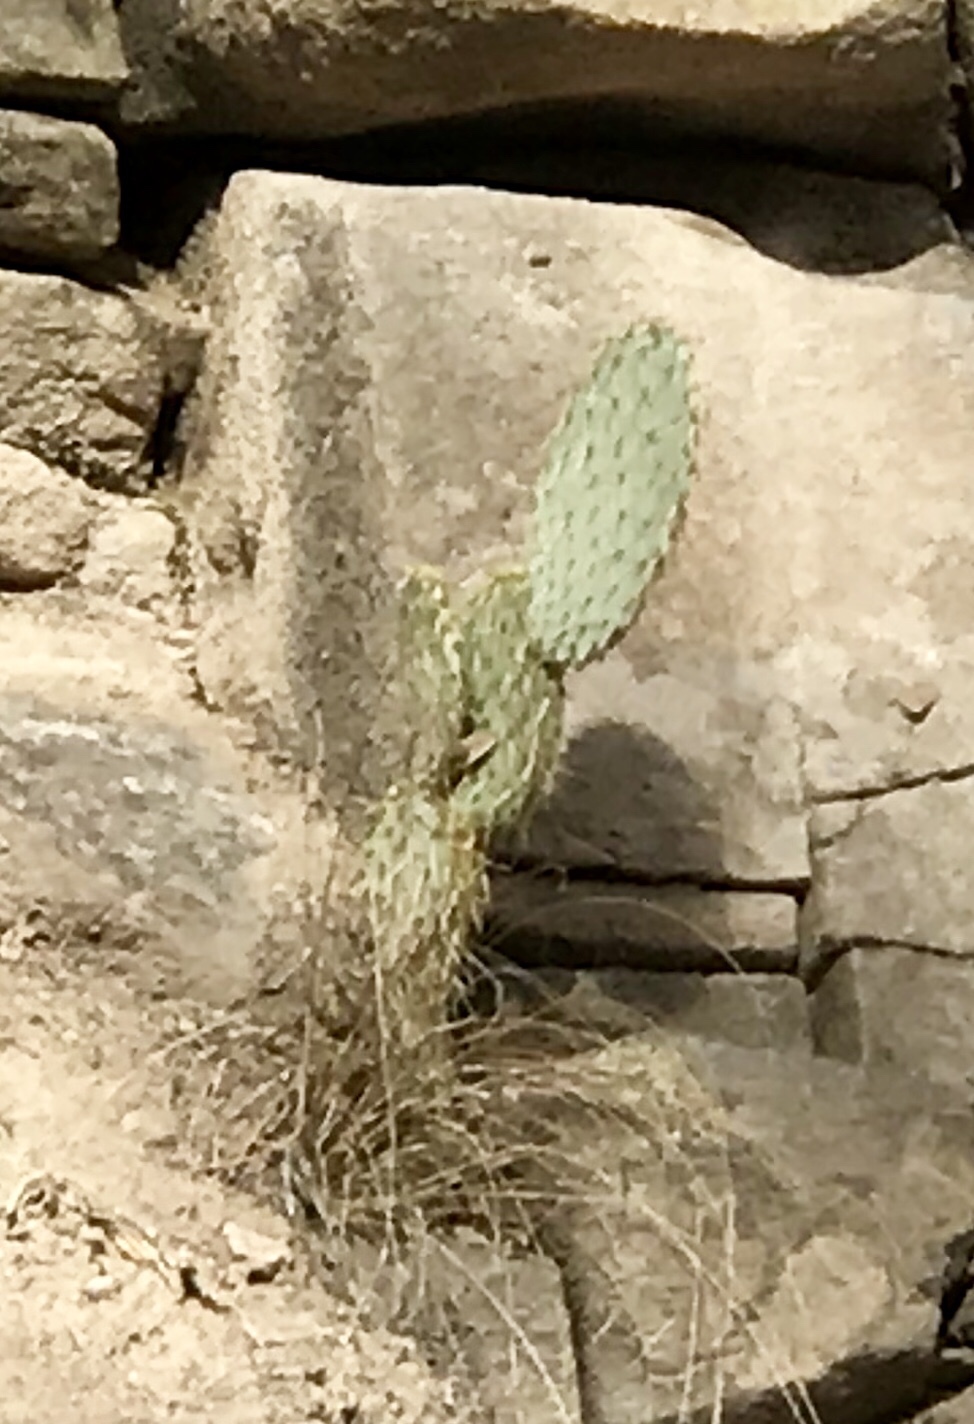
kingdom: Plantae
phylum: Tracheophyta
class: Magnoliopsida
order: Caryophyllales
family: Cactaceae
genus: Opuntia
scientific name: Opuntia chlorotica
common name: Dollar-joint prickly-pear
